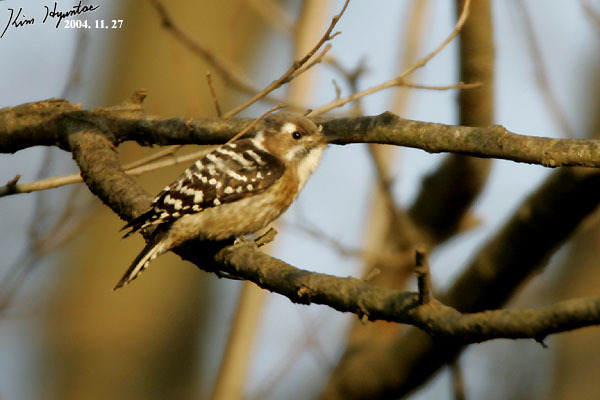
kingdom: Animalia
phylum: Chordata
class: Aves
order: Piciformes
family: Picidae
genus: Yungipicus
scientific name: Yungipicus kizuki
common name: Japanese pygmy woodpecker
